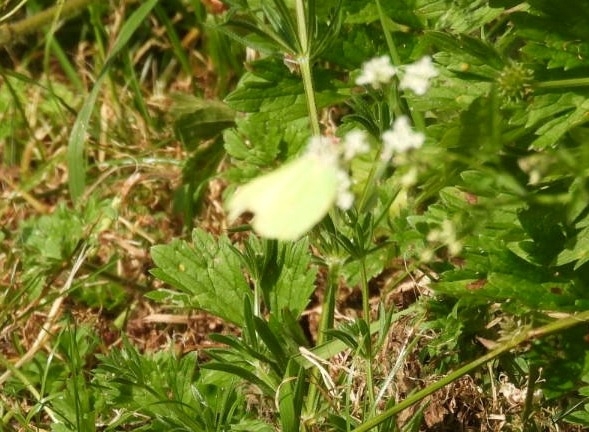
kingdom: Animalia
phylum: Arthropoda
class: Insecta
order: Lepidoptera
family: Pieridae
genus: Gonepteryx
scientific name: Gonepteryx rhamni
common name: Brimstone
